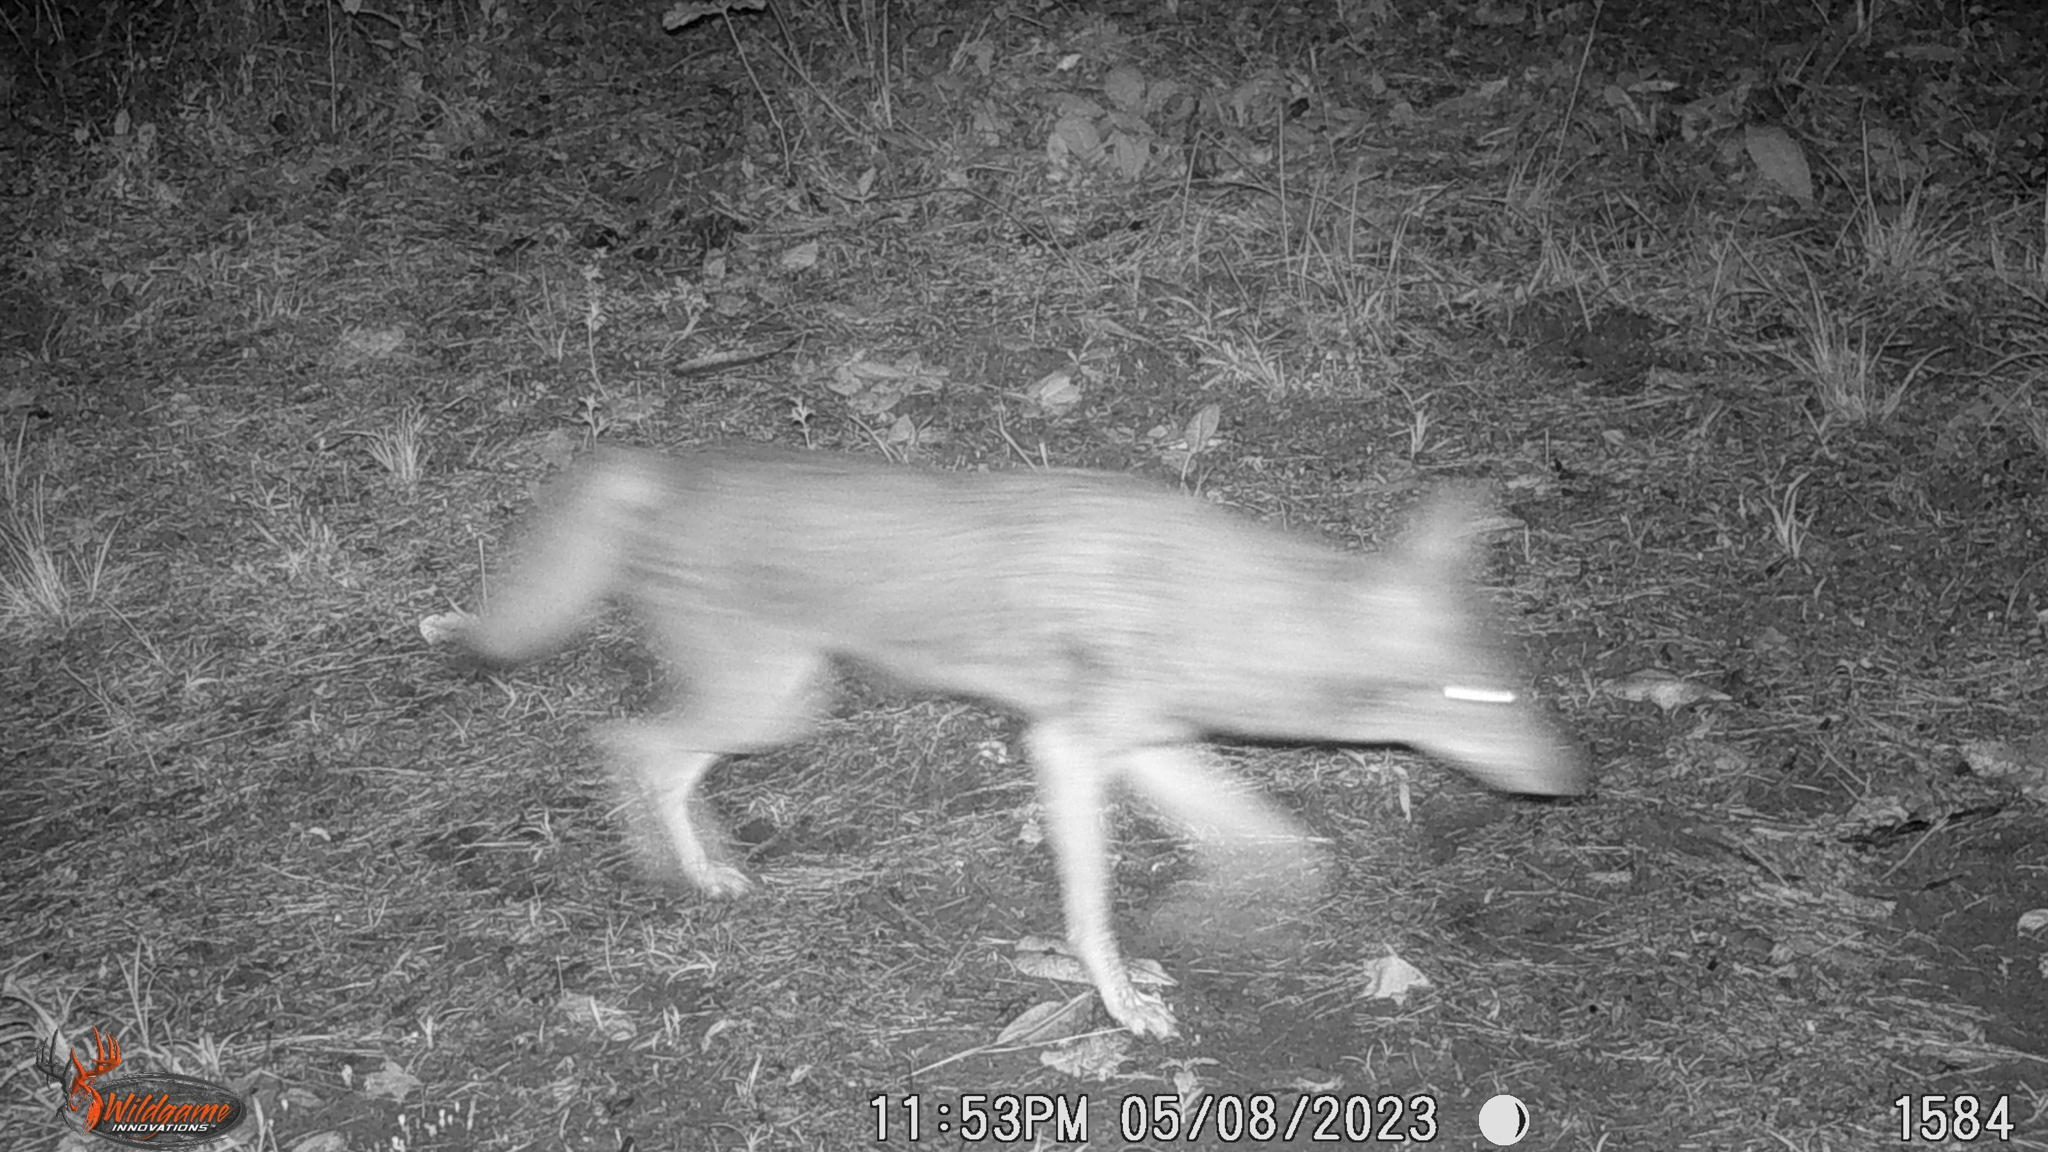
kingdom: Animalia
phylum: Chordata
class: Mammalia
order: Carnivora
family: Canidae
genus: Canis
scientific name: Canis latrans
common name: Coyote
